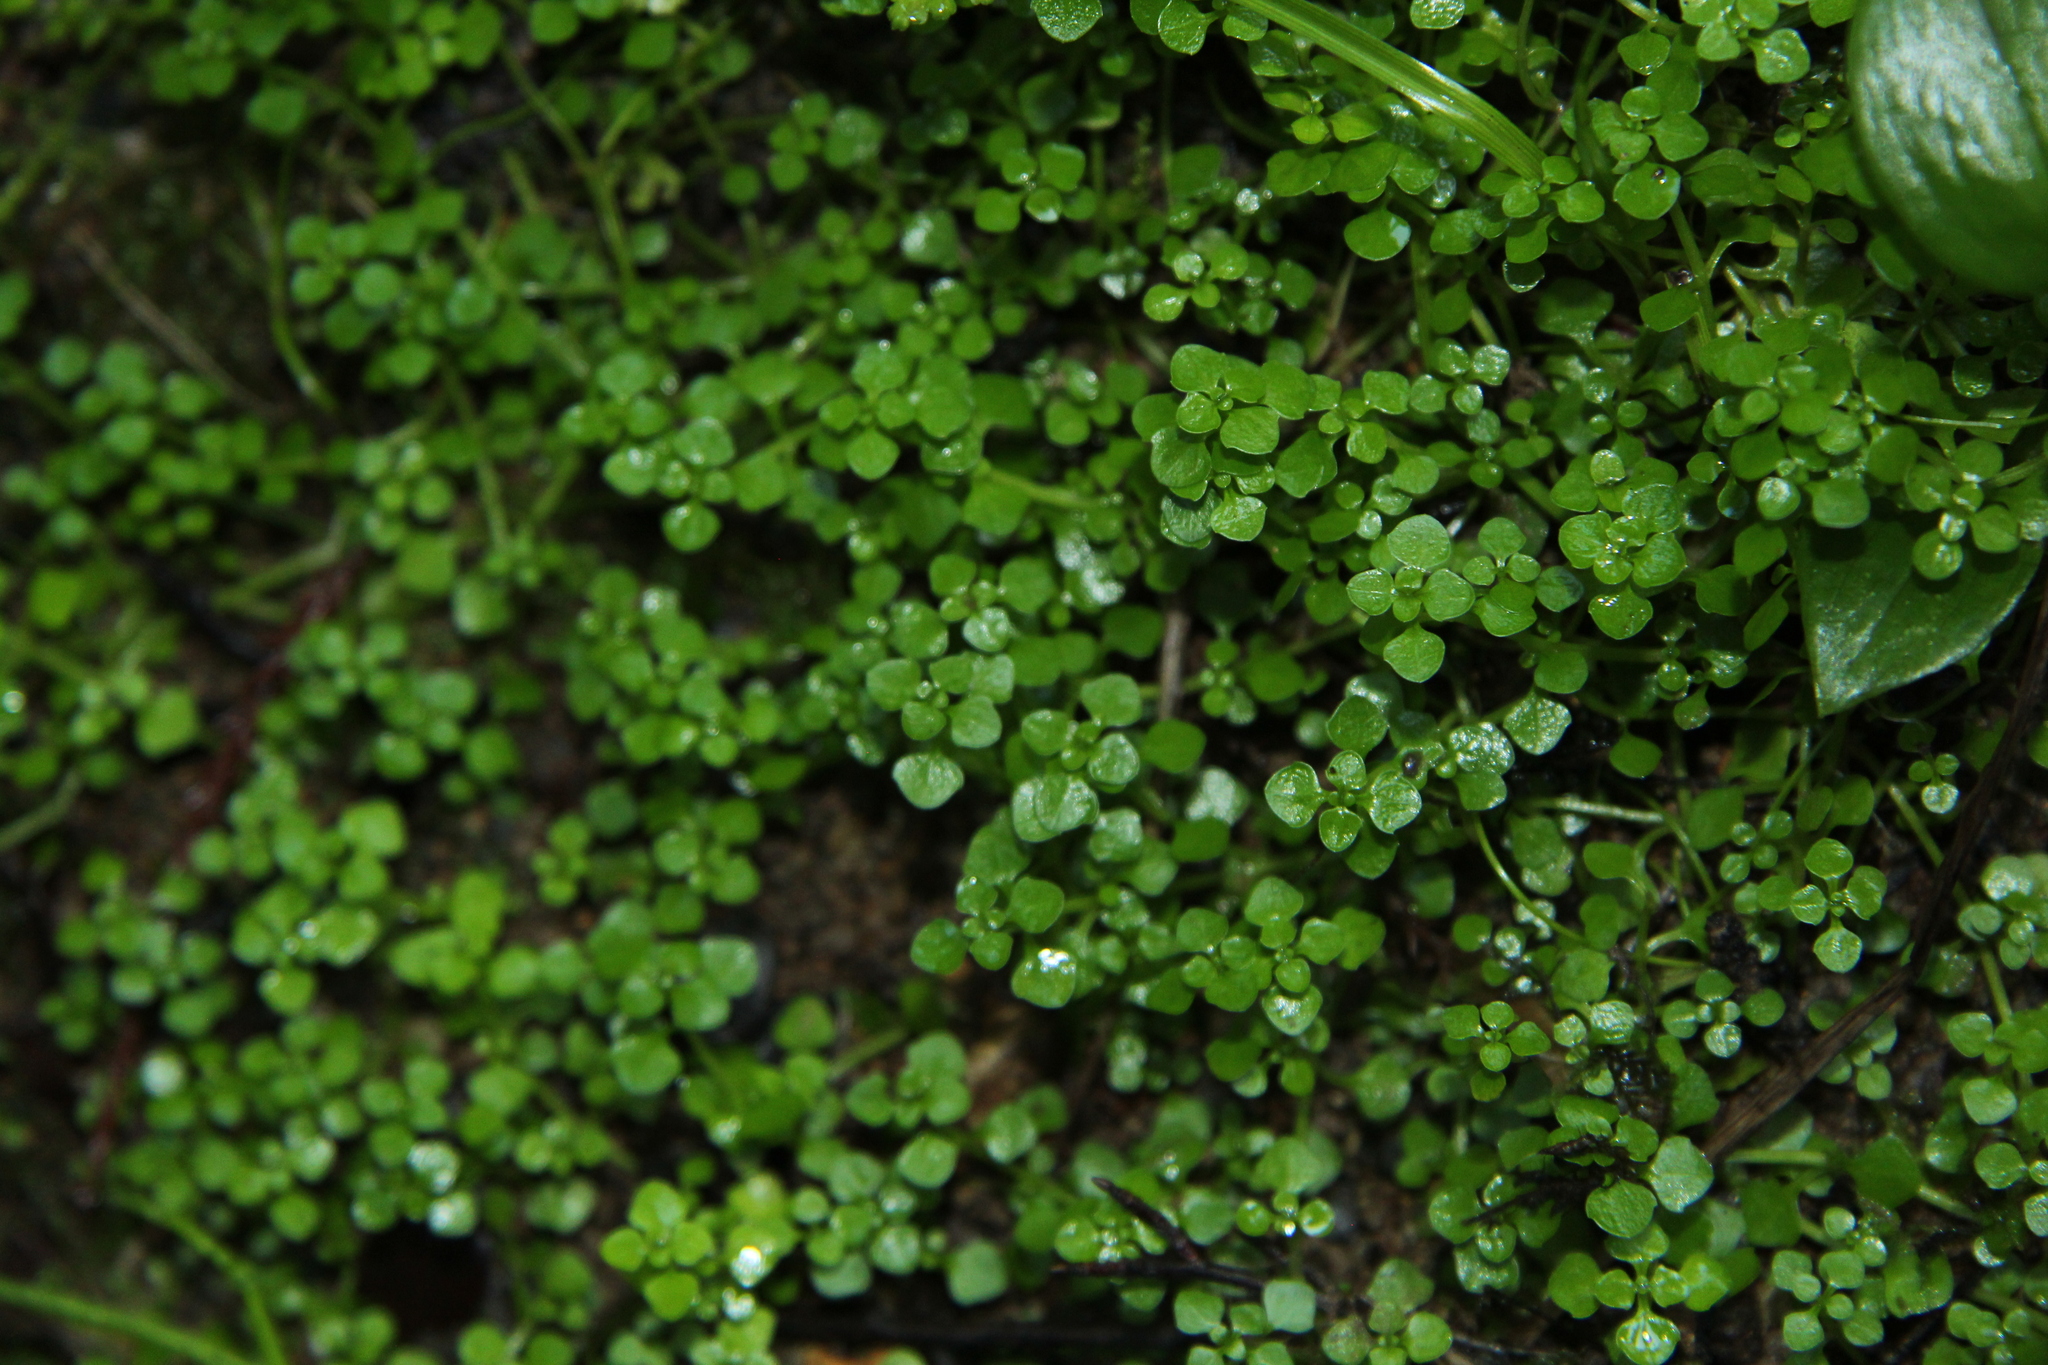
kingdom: Plantae
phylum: Tracheophyta
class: Magnoliopsida
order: Lamiales
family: Plantaginaceae
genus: Callitriche
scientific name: Callitriche muelleri
